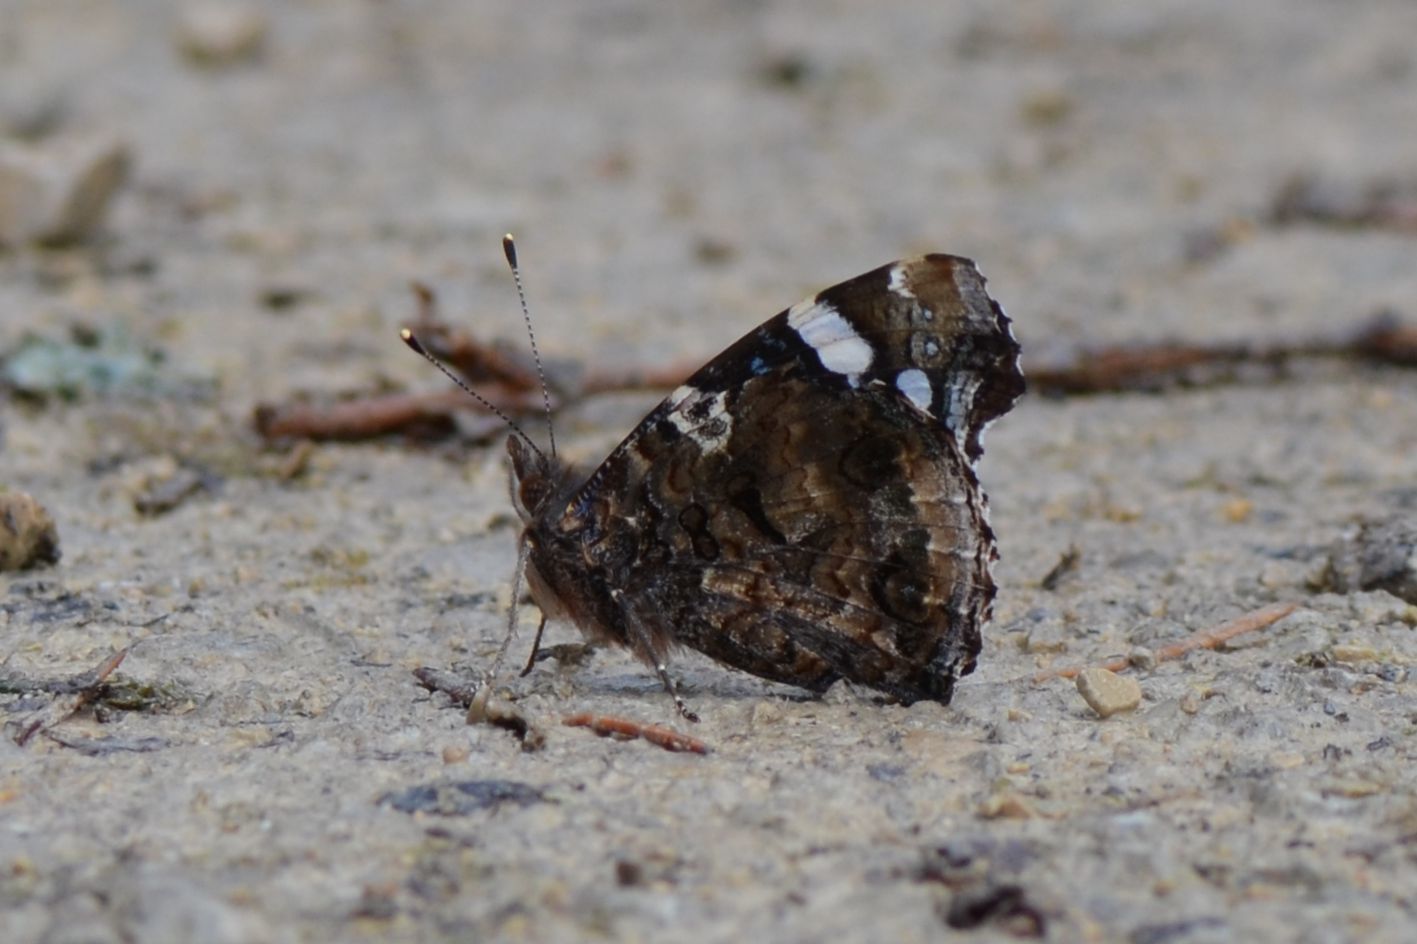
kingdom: Animalia
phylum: Arthropoda
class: Insecta
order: Lepidoptera
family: Nymphalidae
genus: Vanessa
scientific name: Vanessa atalanta
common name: Red admiral
